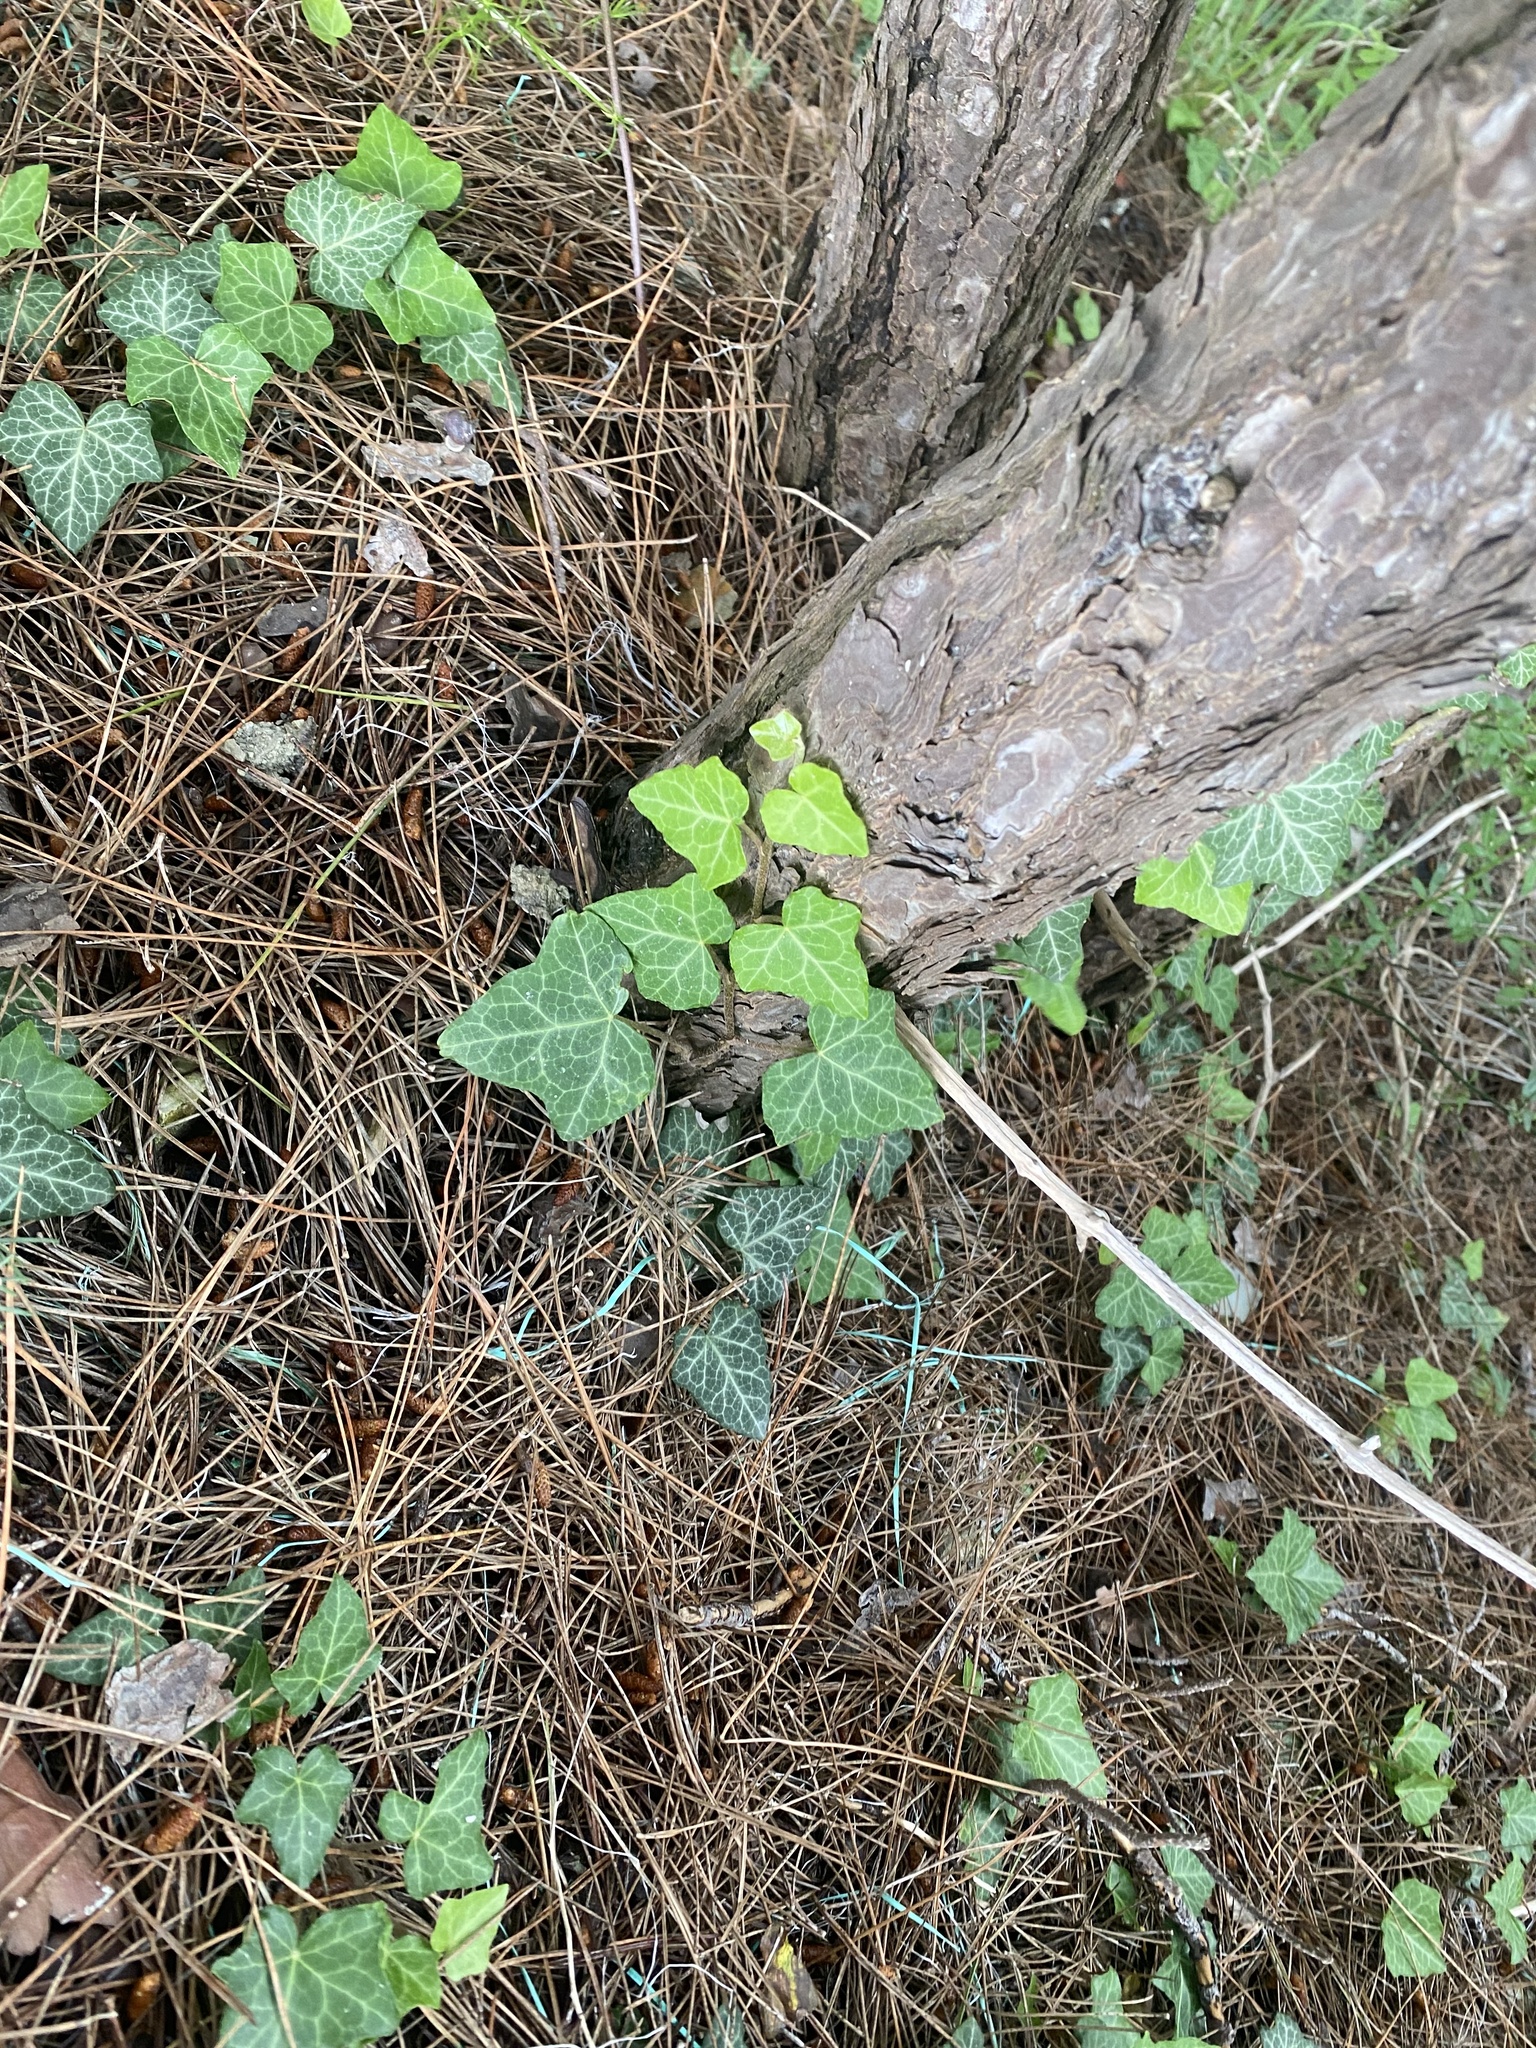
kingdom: Plantae
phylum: Tracheophyta
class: Magnoliopsida
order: Apiales
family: Araliaceae
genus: Hedera
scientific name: Hedera helix
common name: Ivy
